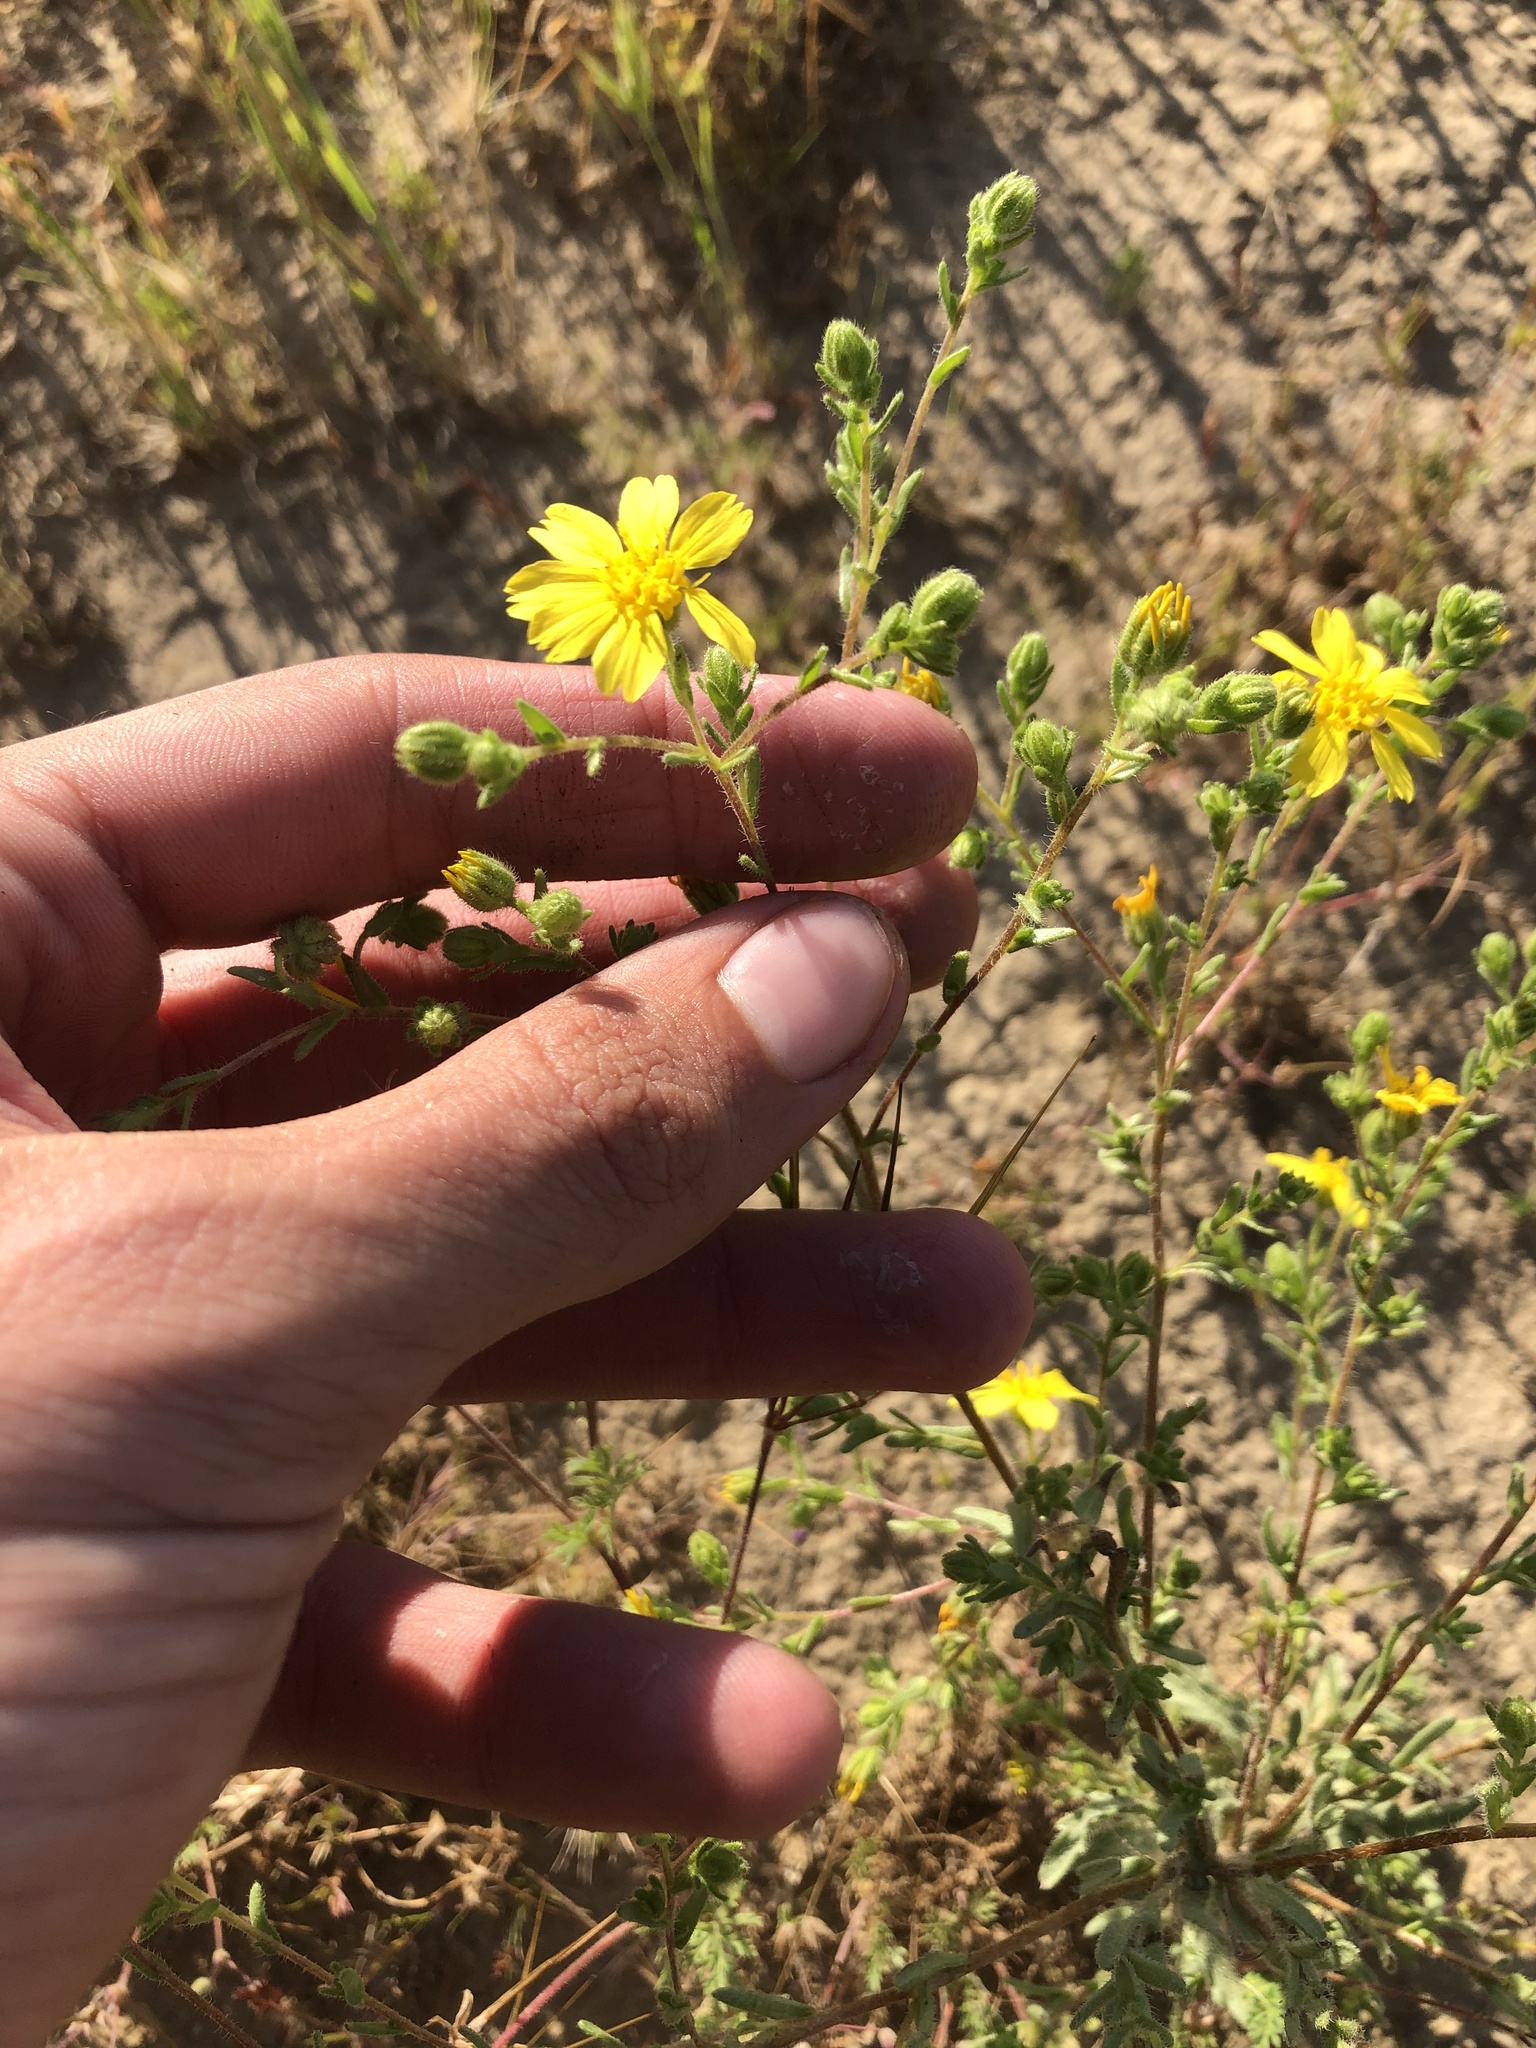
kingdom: Plantae
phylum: Tracheophyta
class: Magnoliopsida
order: Asterales
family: Asteraceae
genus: Deinandra
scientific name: Deinandra pallida
